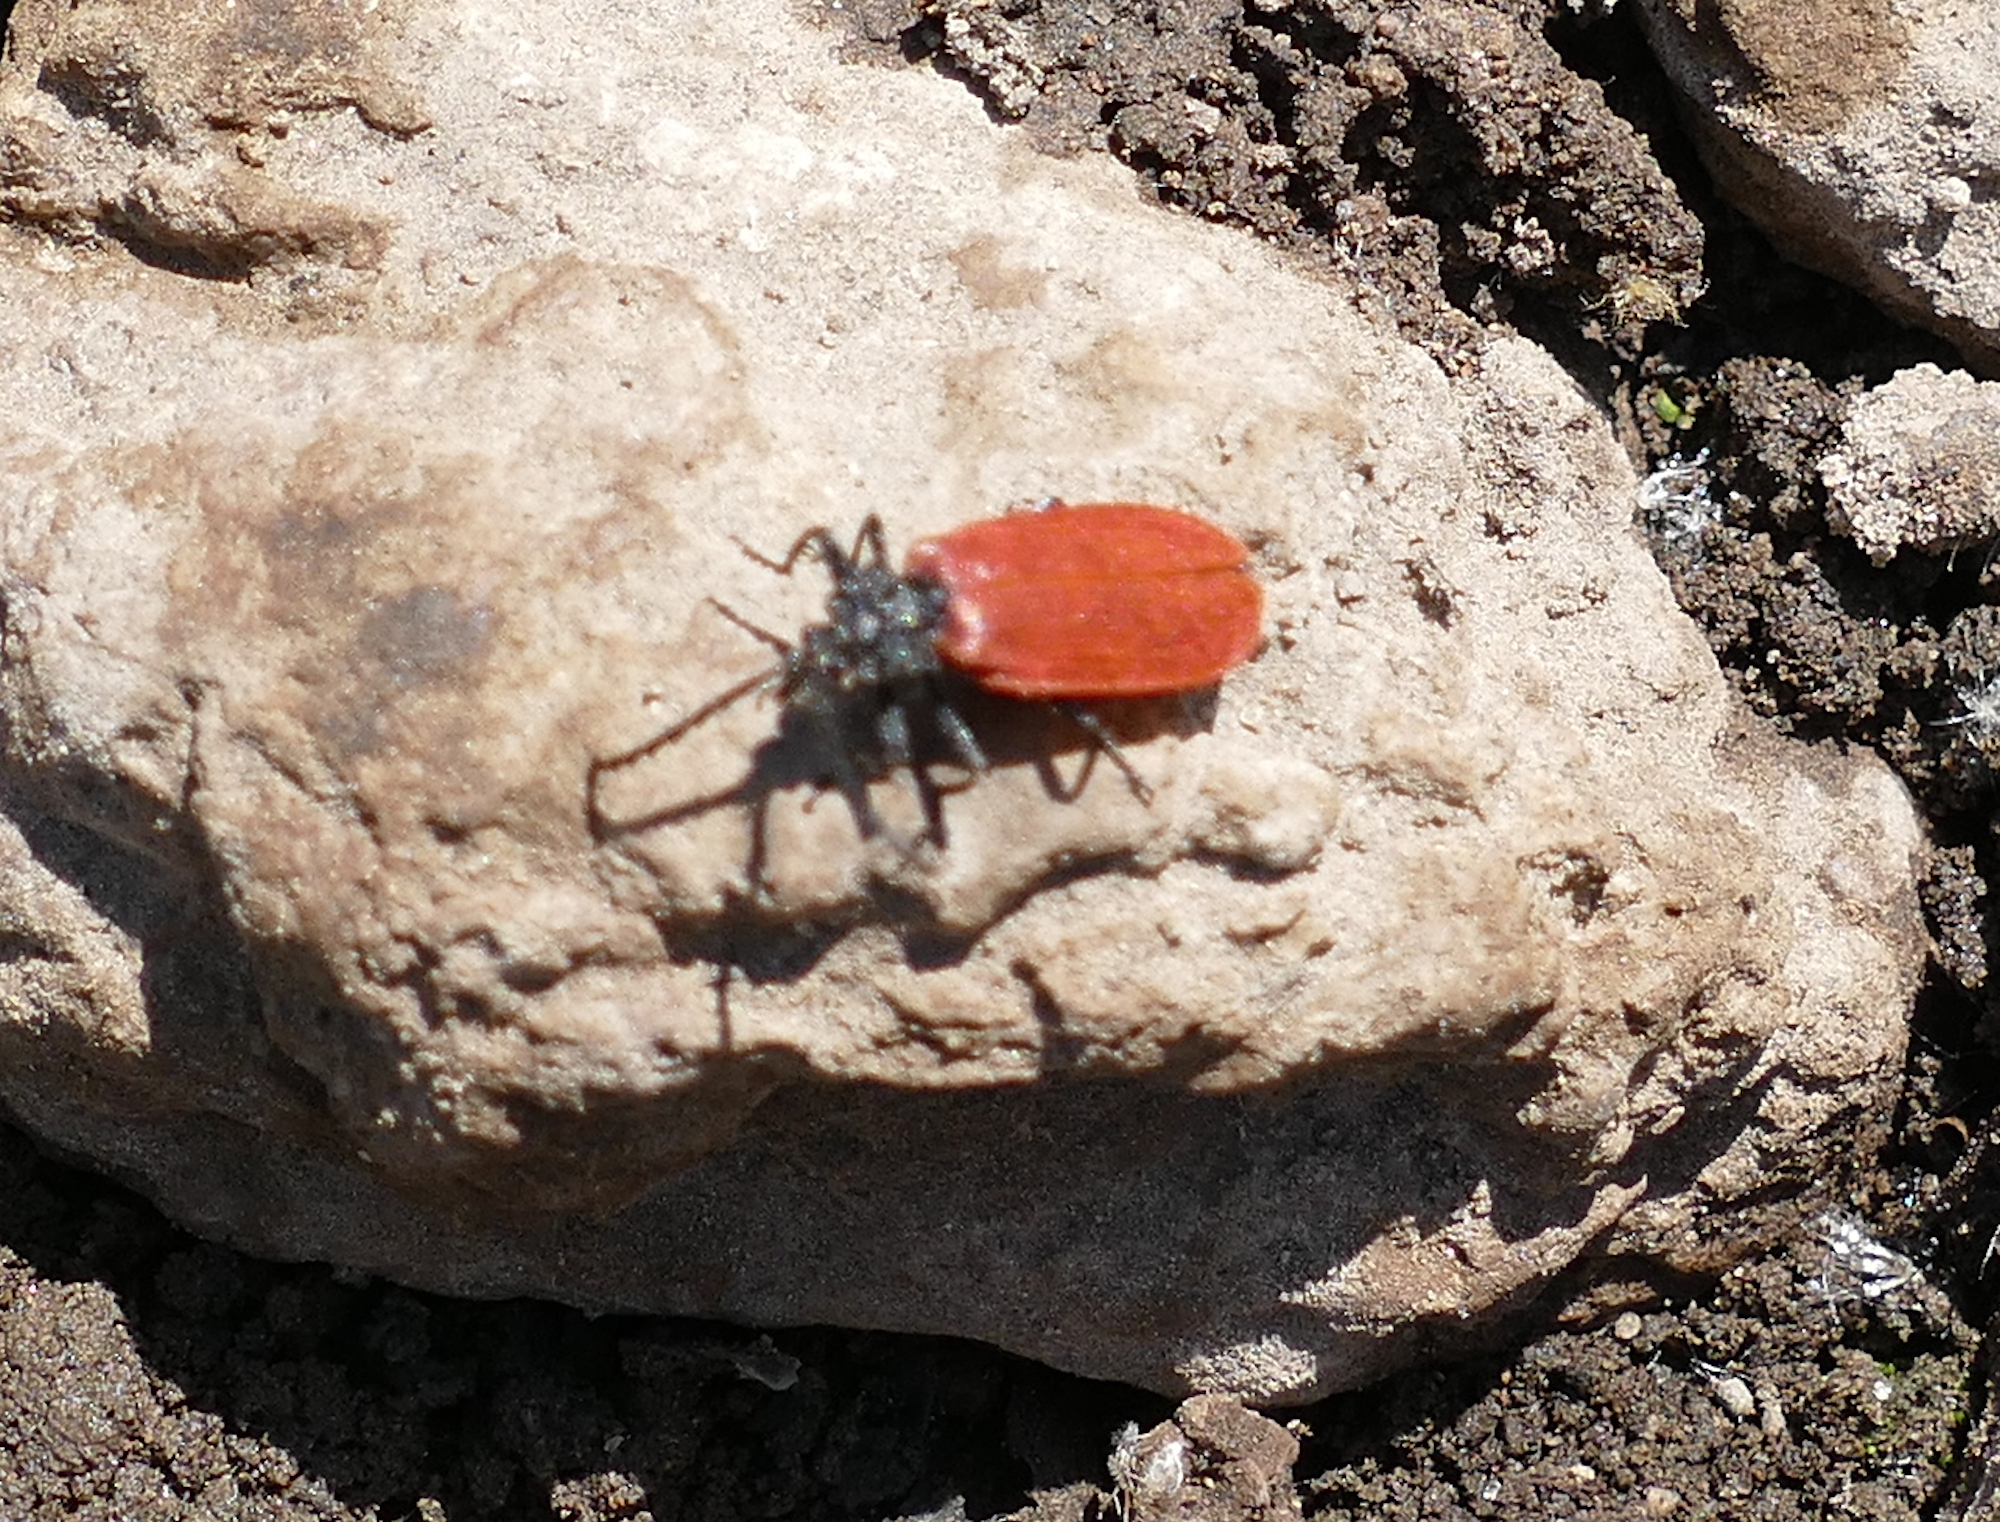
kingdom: Animalia
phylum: Arthropoda
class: Insecta
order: Coleoptera
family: Lycidae
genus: Macrolygistopterus
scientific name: Macrolygistopterus
